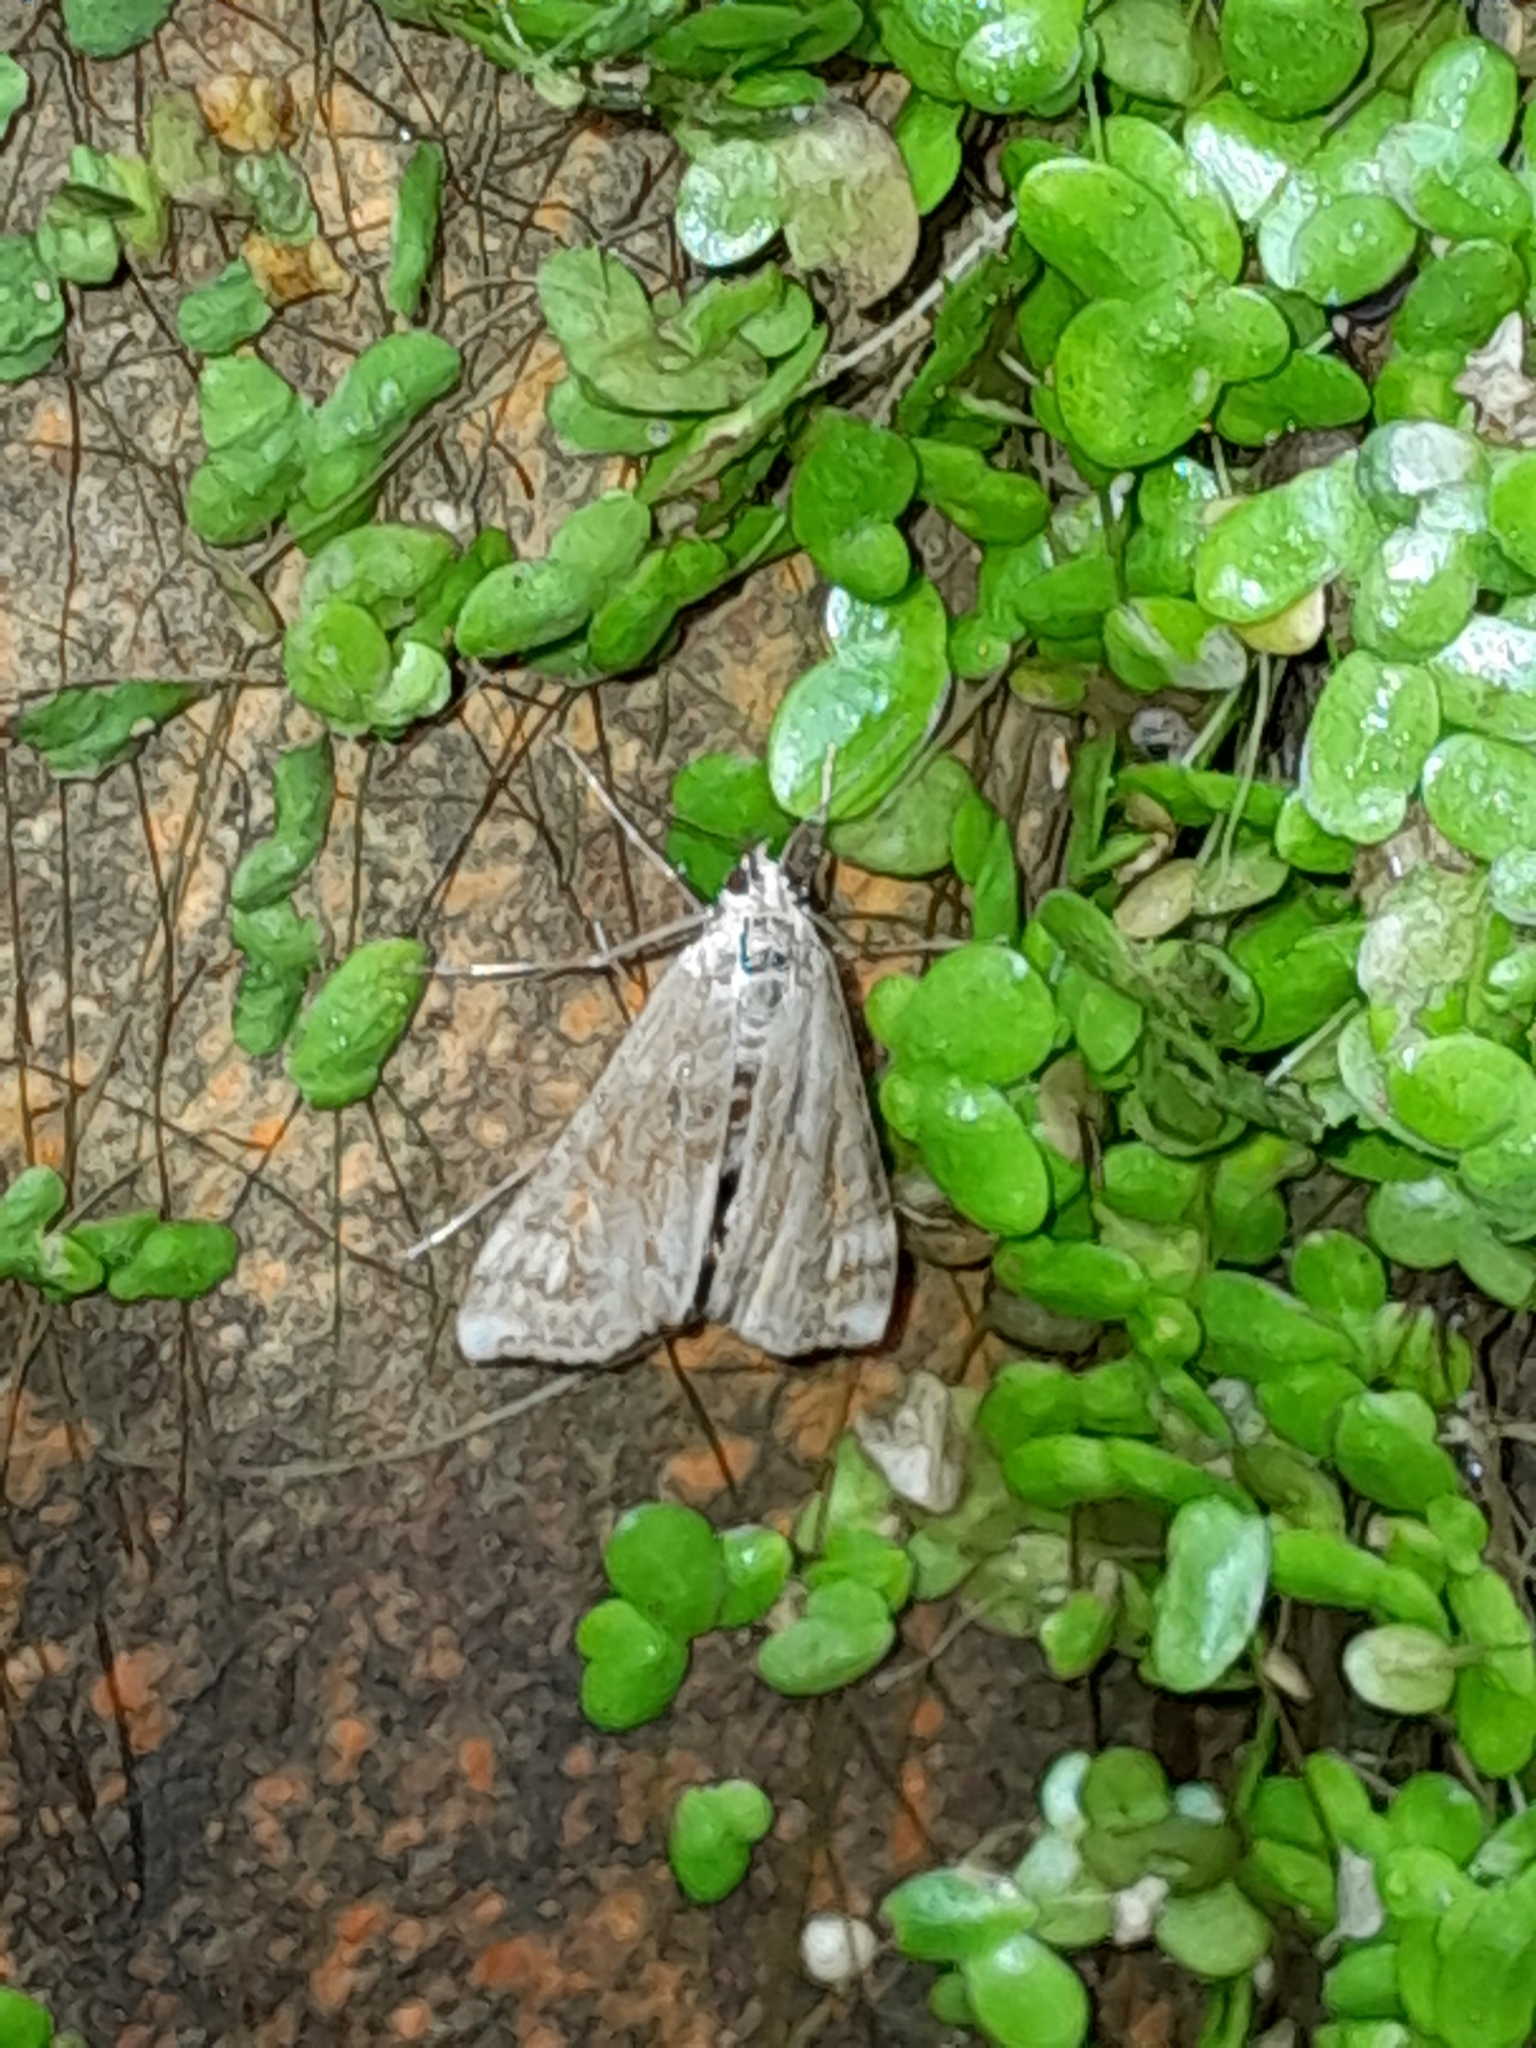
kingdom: Animalia
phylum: Arthropoda
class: Insecta
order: Lepidoptera
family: Crambidae
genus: Cataclysta
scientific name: Cataclysta lemnata
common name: Small china-mark
